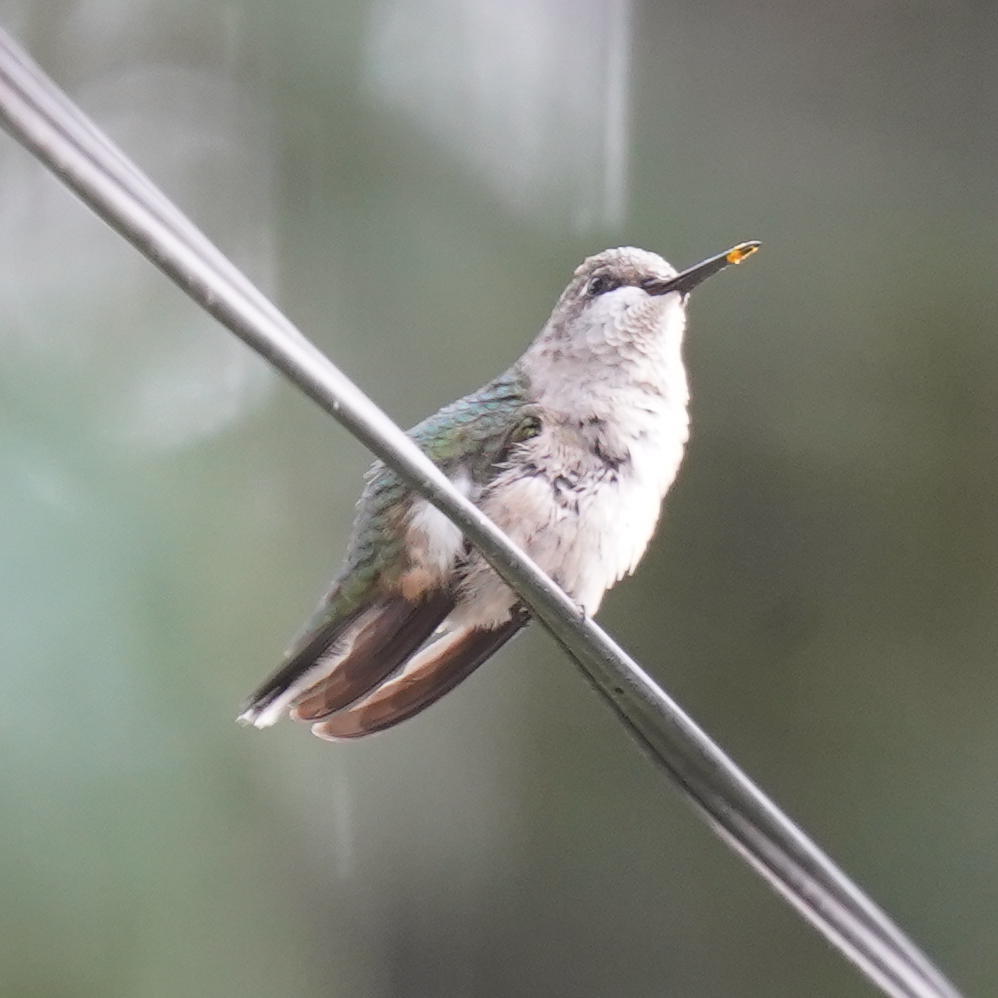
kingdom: Animalia
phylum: Chordata
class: Aves
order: Apodiformes
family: Trochilidae
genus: Archilochus
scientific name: Archilochus colubris
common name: Ruby-throated hummingbird
